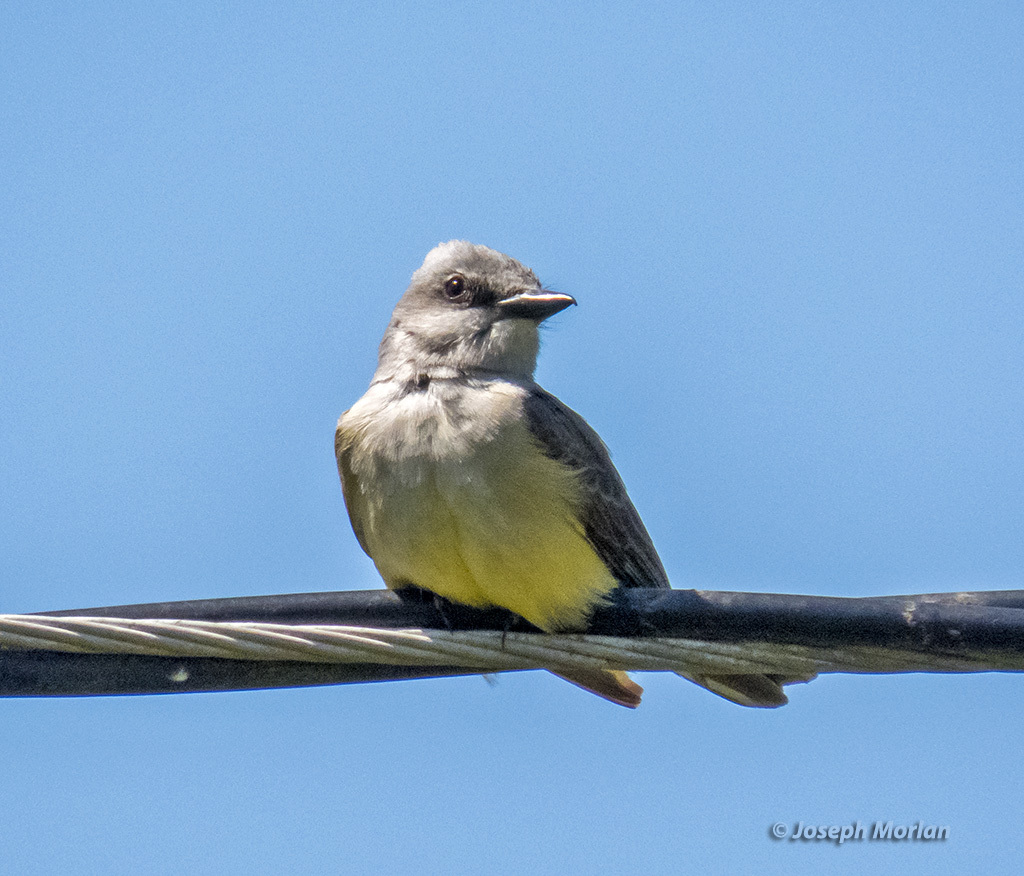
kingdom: Animalia
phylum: Chordata
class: Aves
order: Passeriformes
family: Tyrannidae
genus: Tyrannus
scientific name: Tyrannus verticalis
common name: Western kingbird
